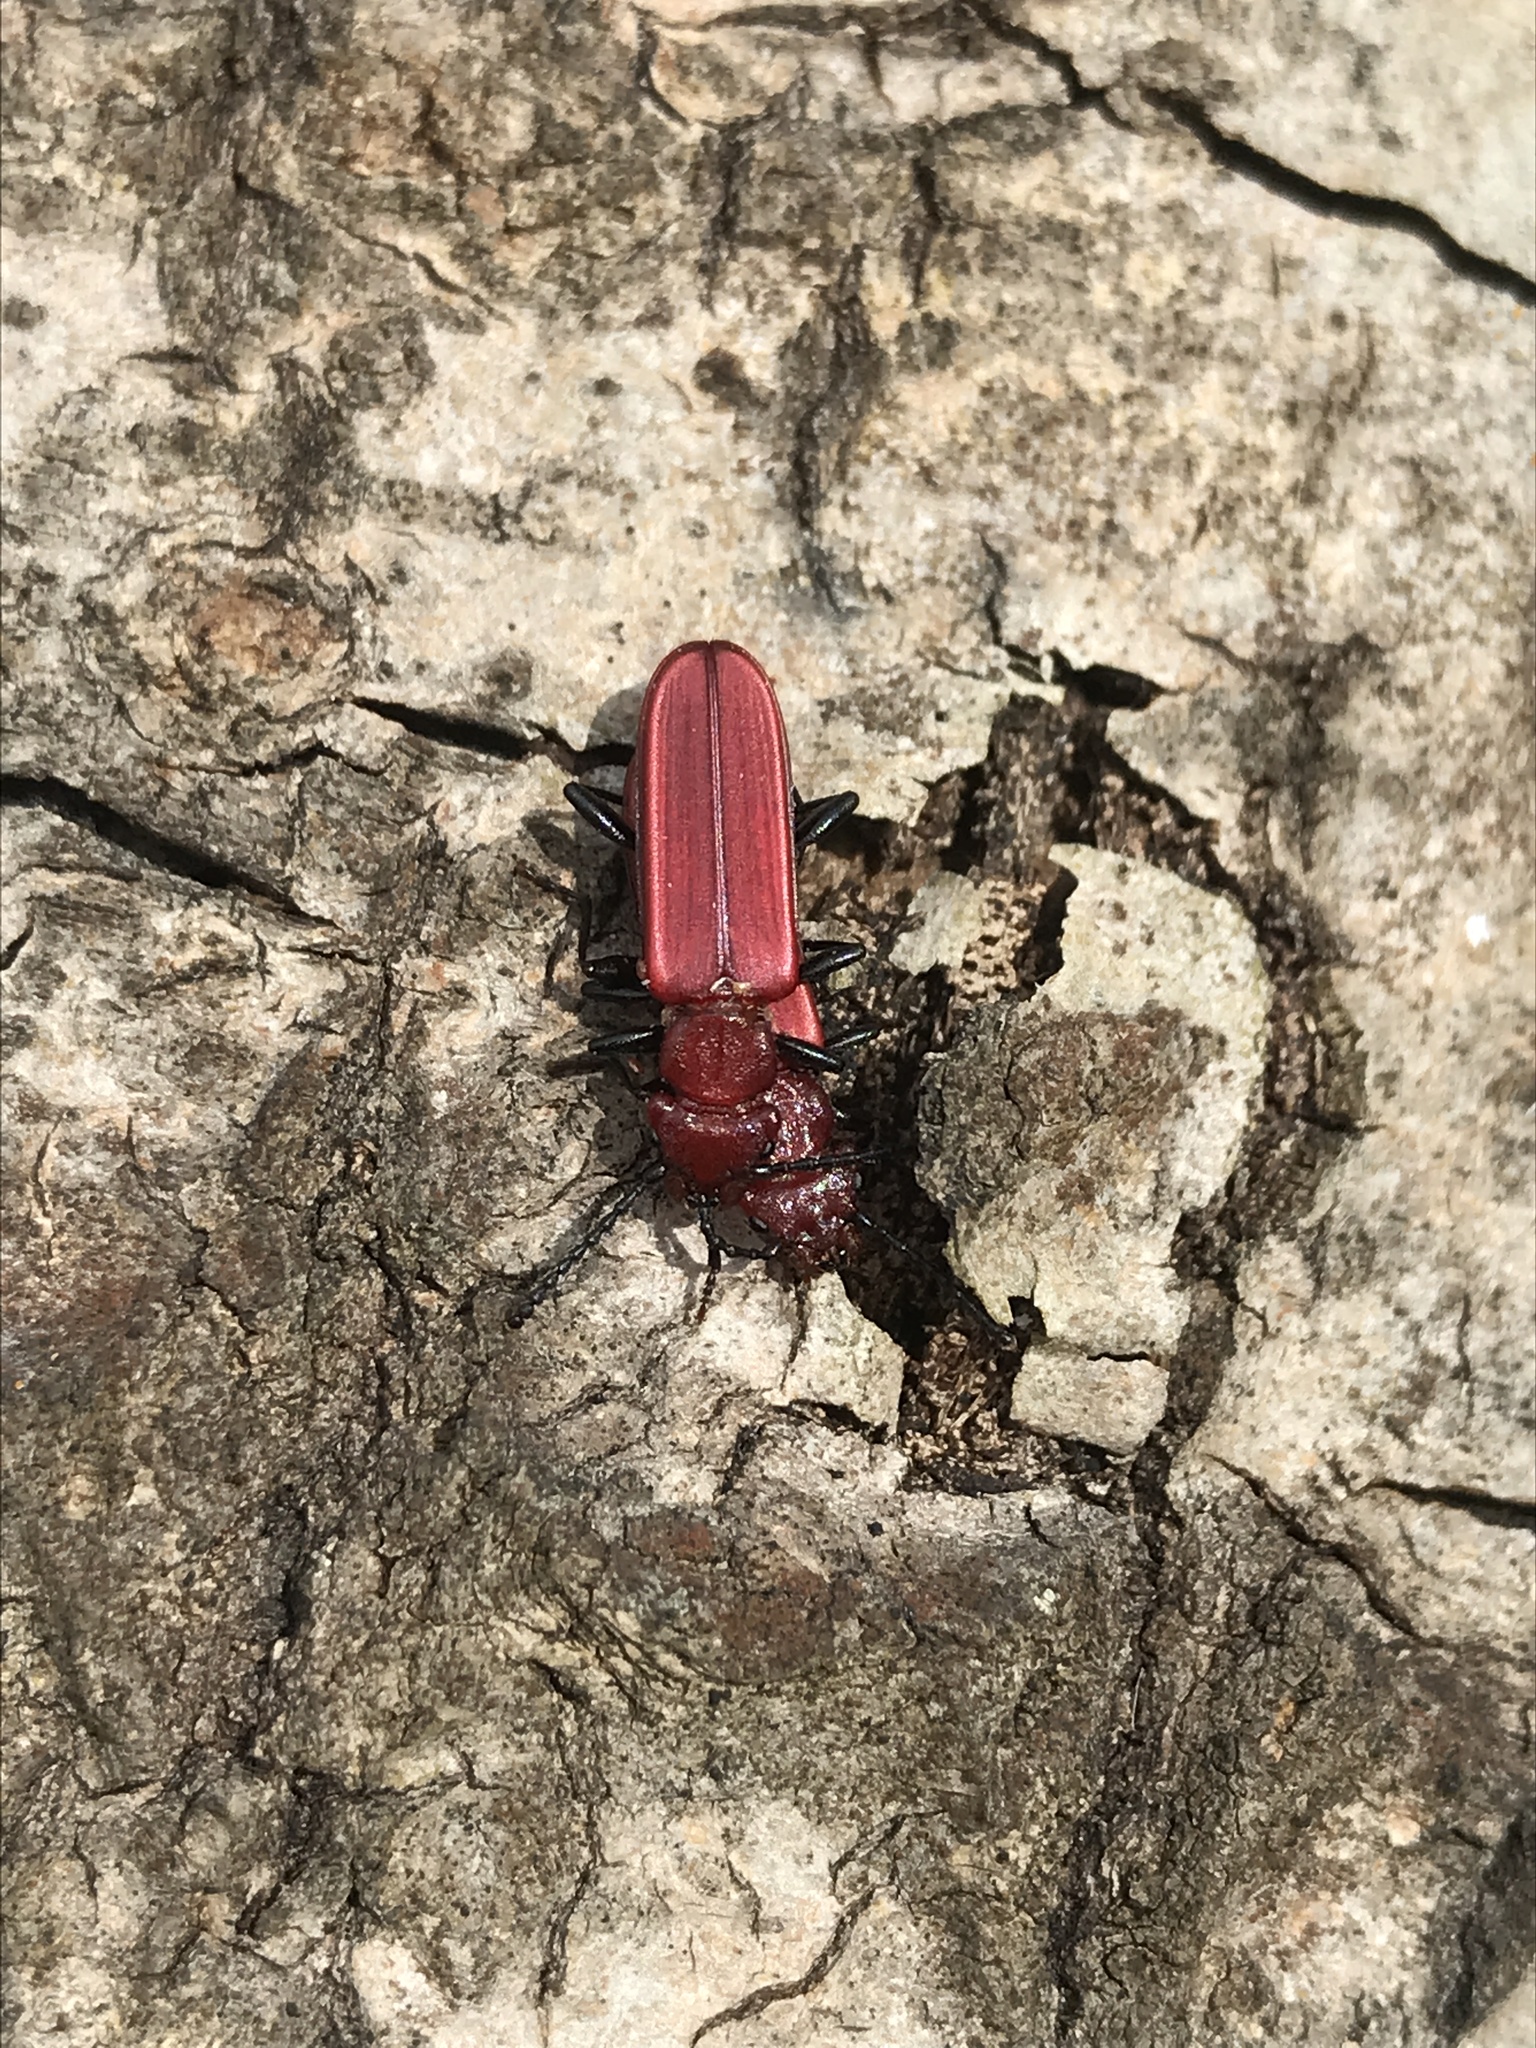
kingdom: Animalia
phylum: Arthropoda
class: Insecta
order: Coleoptera
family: Cucujidae
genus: Cucujus
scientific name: Cucujus haematodes
